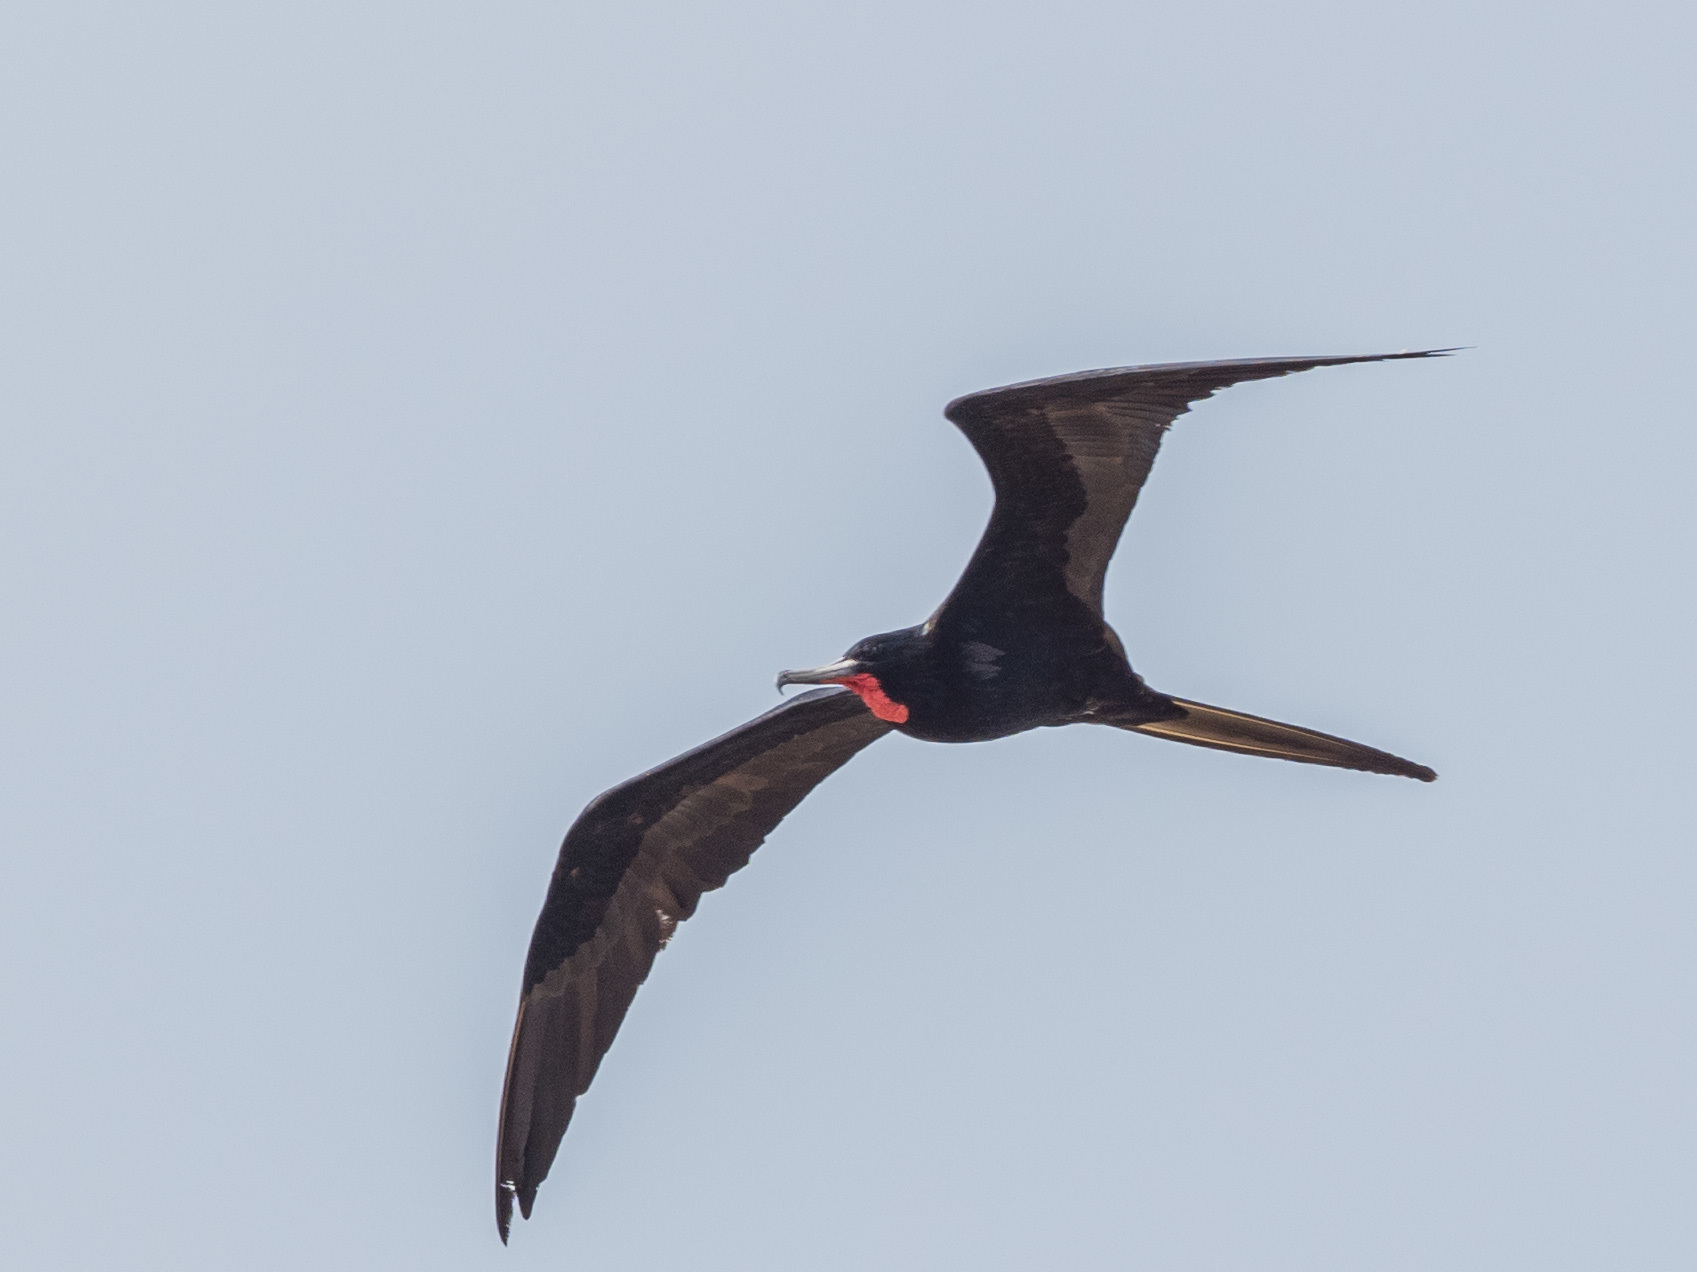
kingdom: Animalia
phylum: Chordata
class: Aves
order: Suliformes
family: Fregatidae
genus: Fregata
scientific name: Fregata magnificens
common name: Magnificent frigatebird
